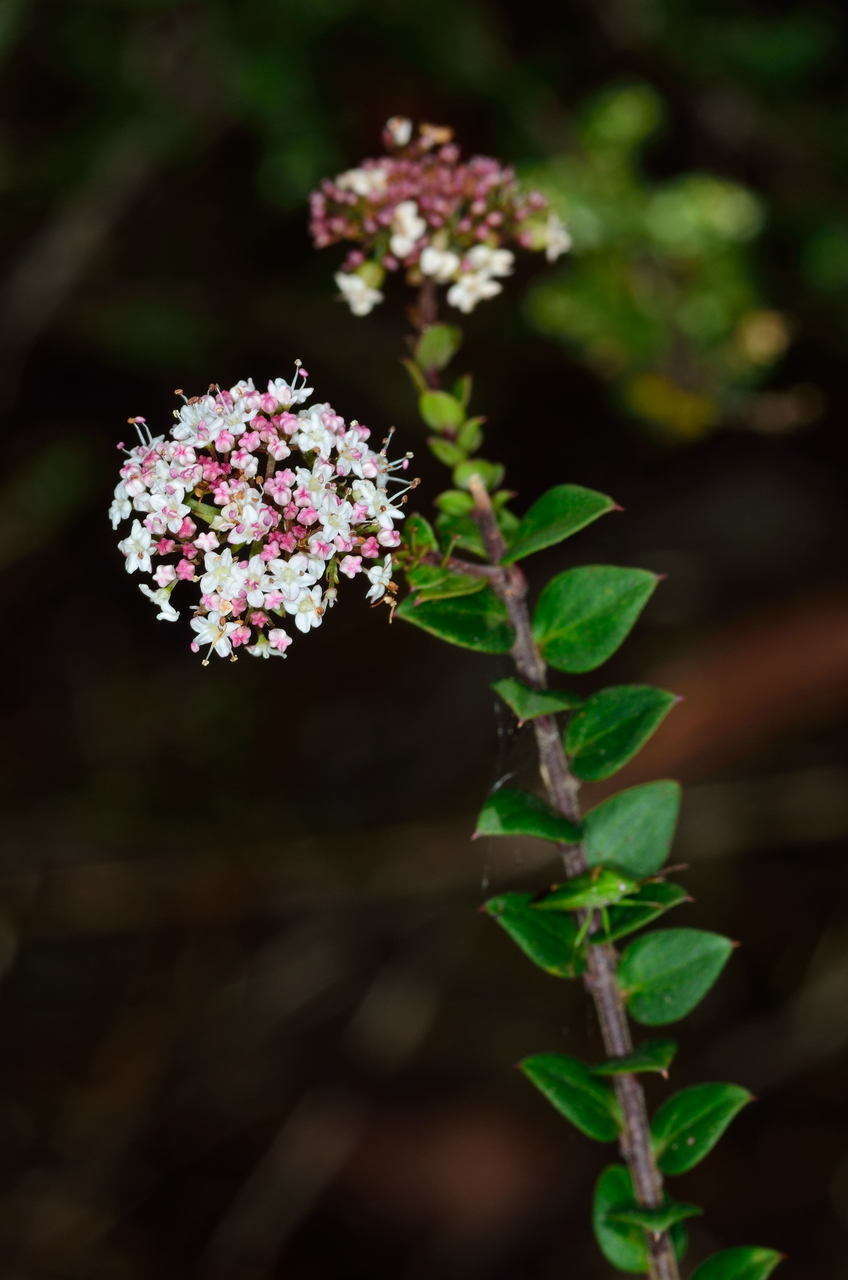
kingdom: Plantae
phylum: Tracheophyta
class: Magnoliopsida
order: Apiales
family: Apiaceae
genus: Platysace
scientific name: Platysace lanceolata
